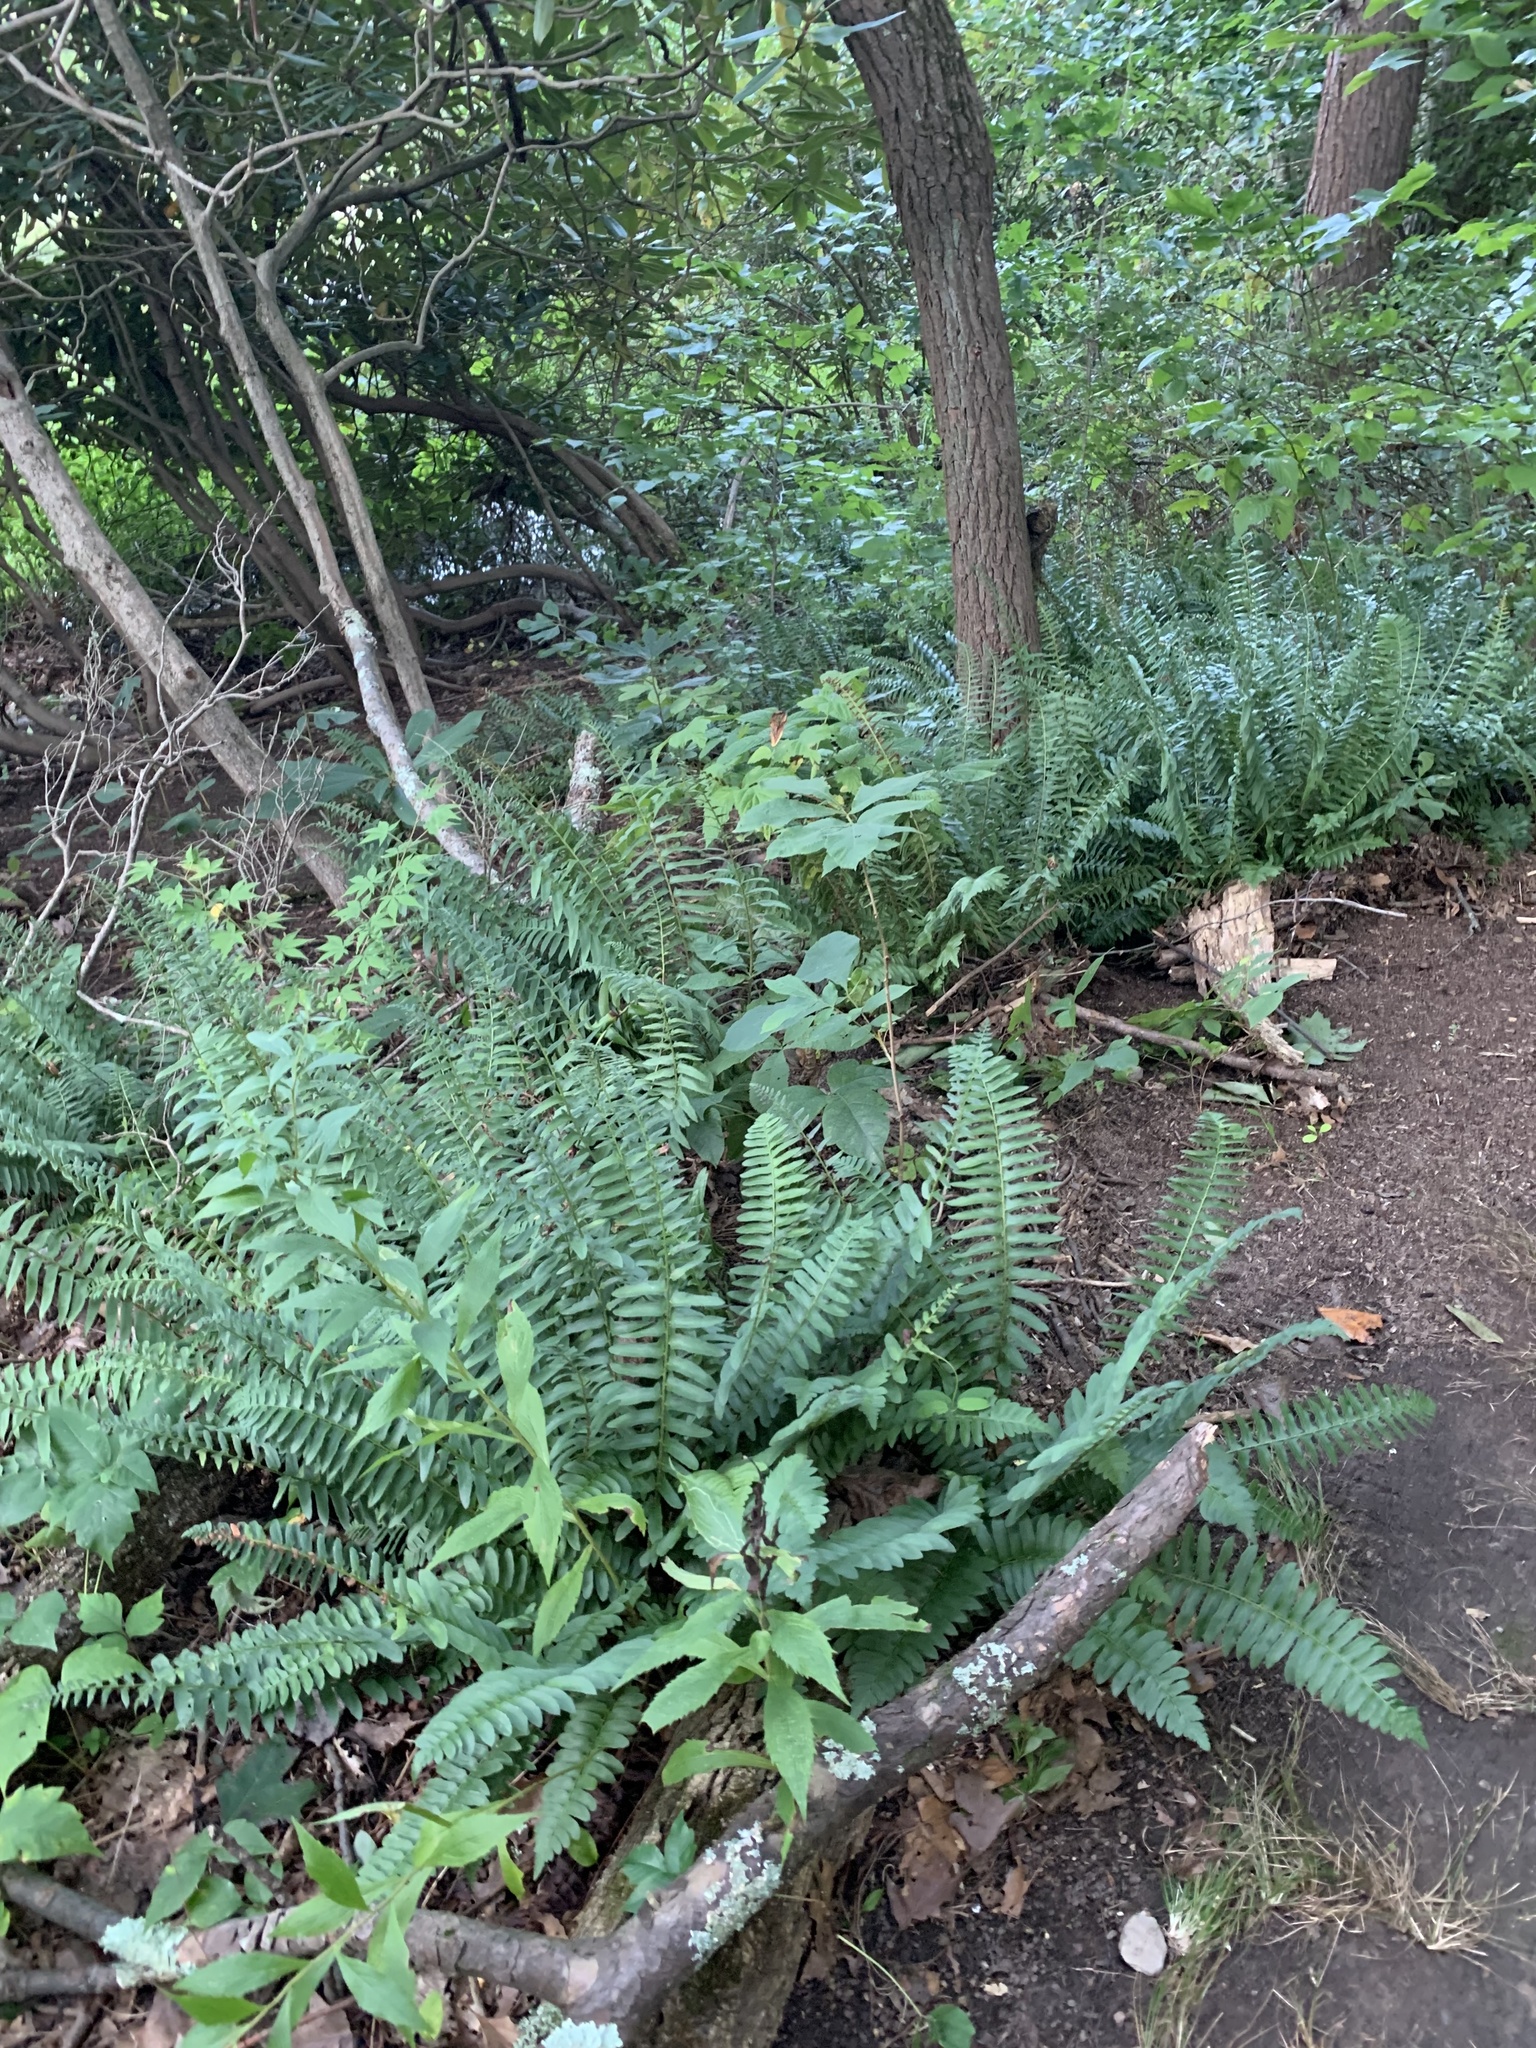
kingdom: Plantae
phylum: Tracheophyta
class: Polypodiopsida
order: Polypodiales
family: Dryopteridaceae
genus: Polystichum
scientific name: Polystichum acrostichoides
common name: Christmas fern
